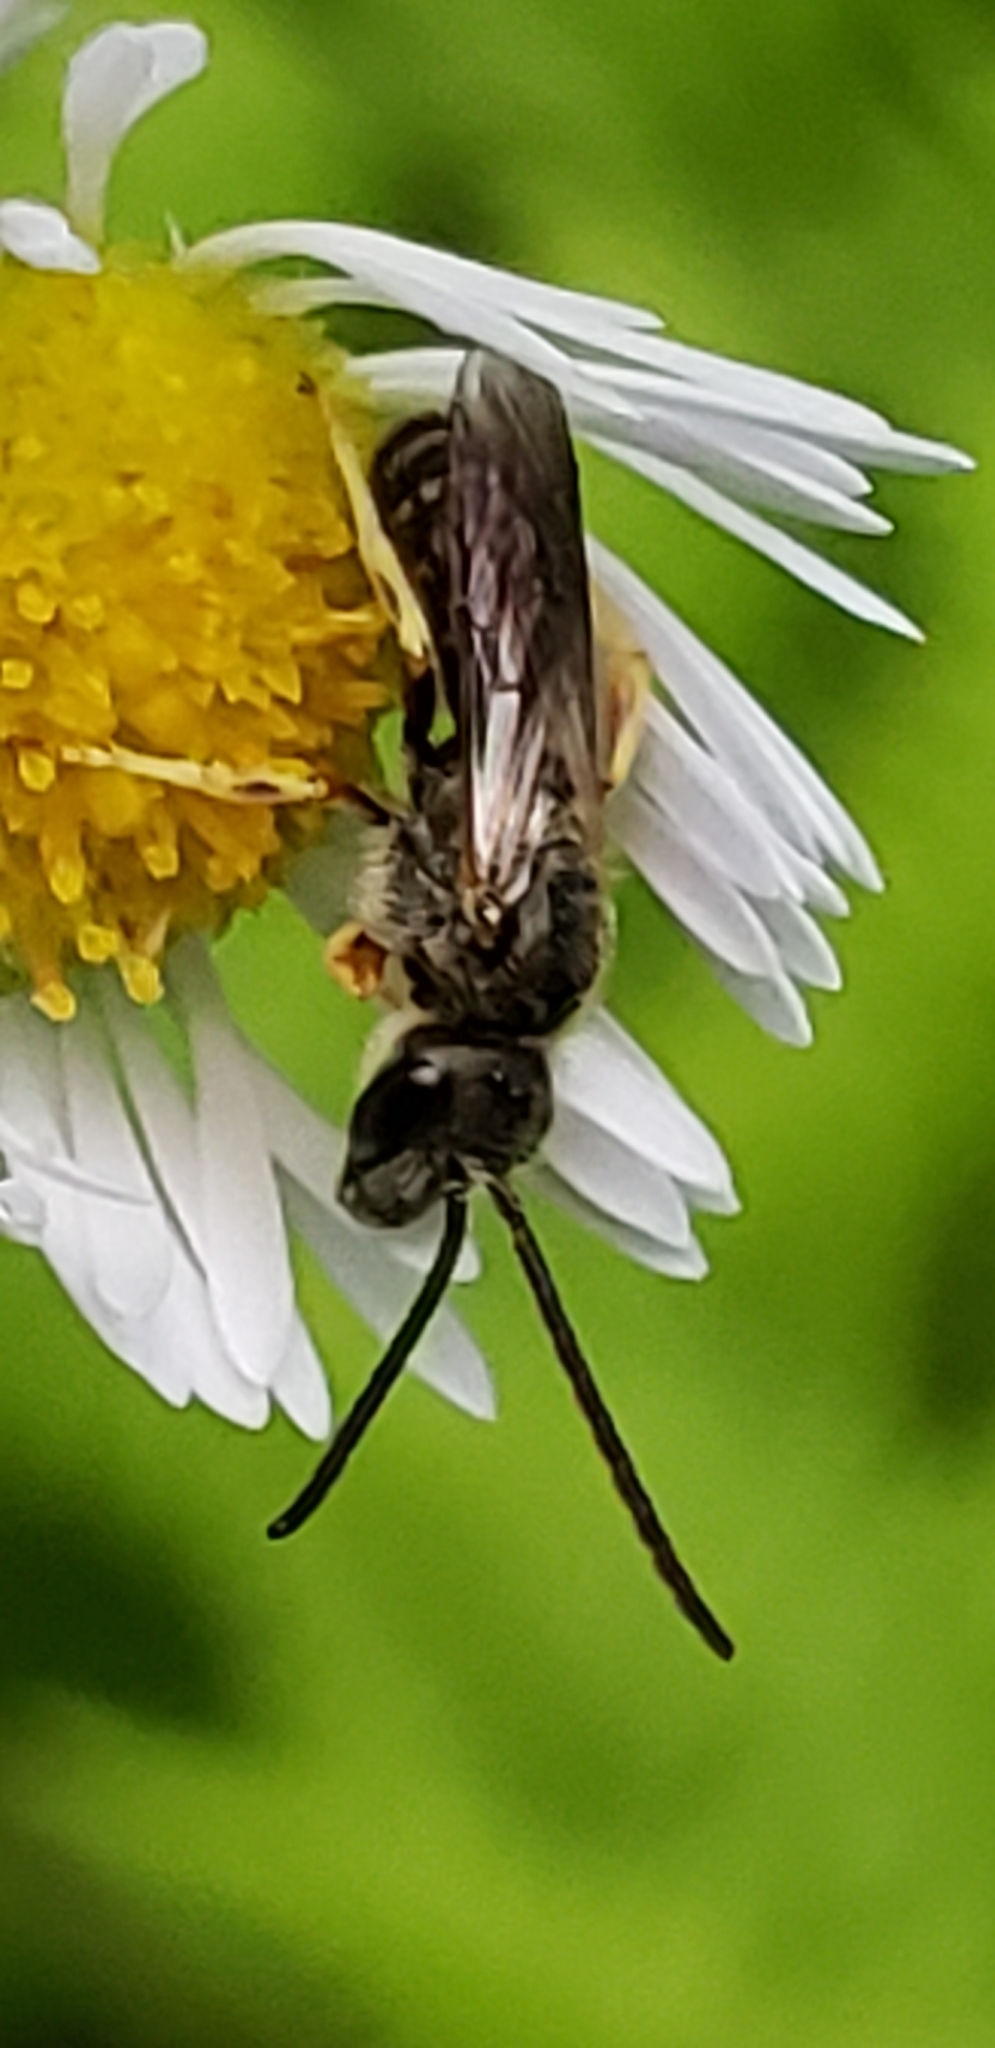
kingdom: Animalia
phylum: Arthropoda
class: Insecta
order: Hymenoptera
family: Halictidae
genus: Halictus
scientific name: Halictus confusus
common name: Southern bronze furrow bee
